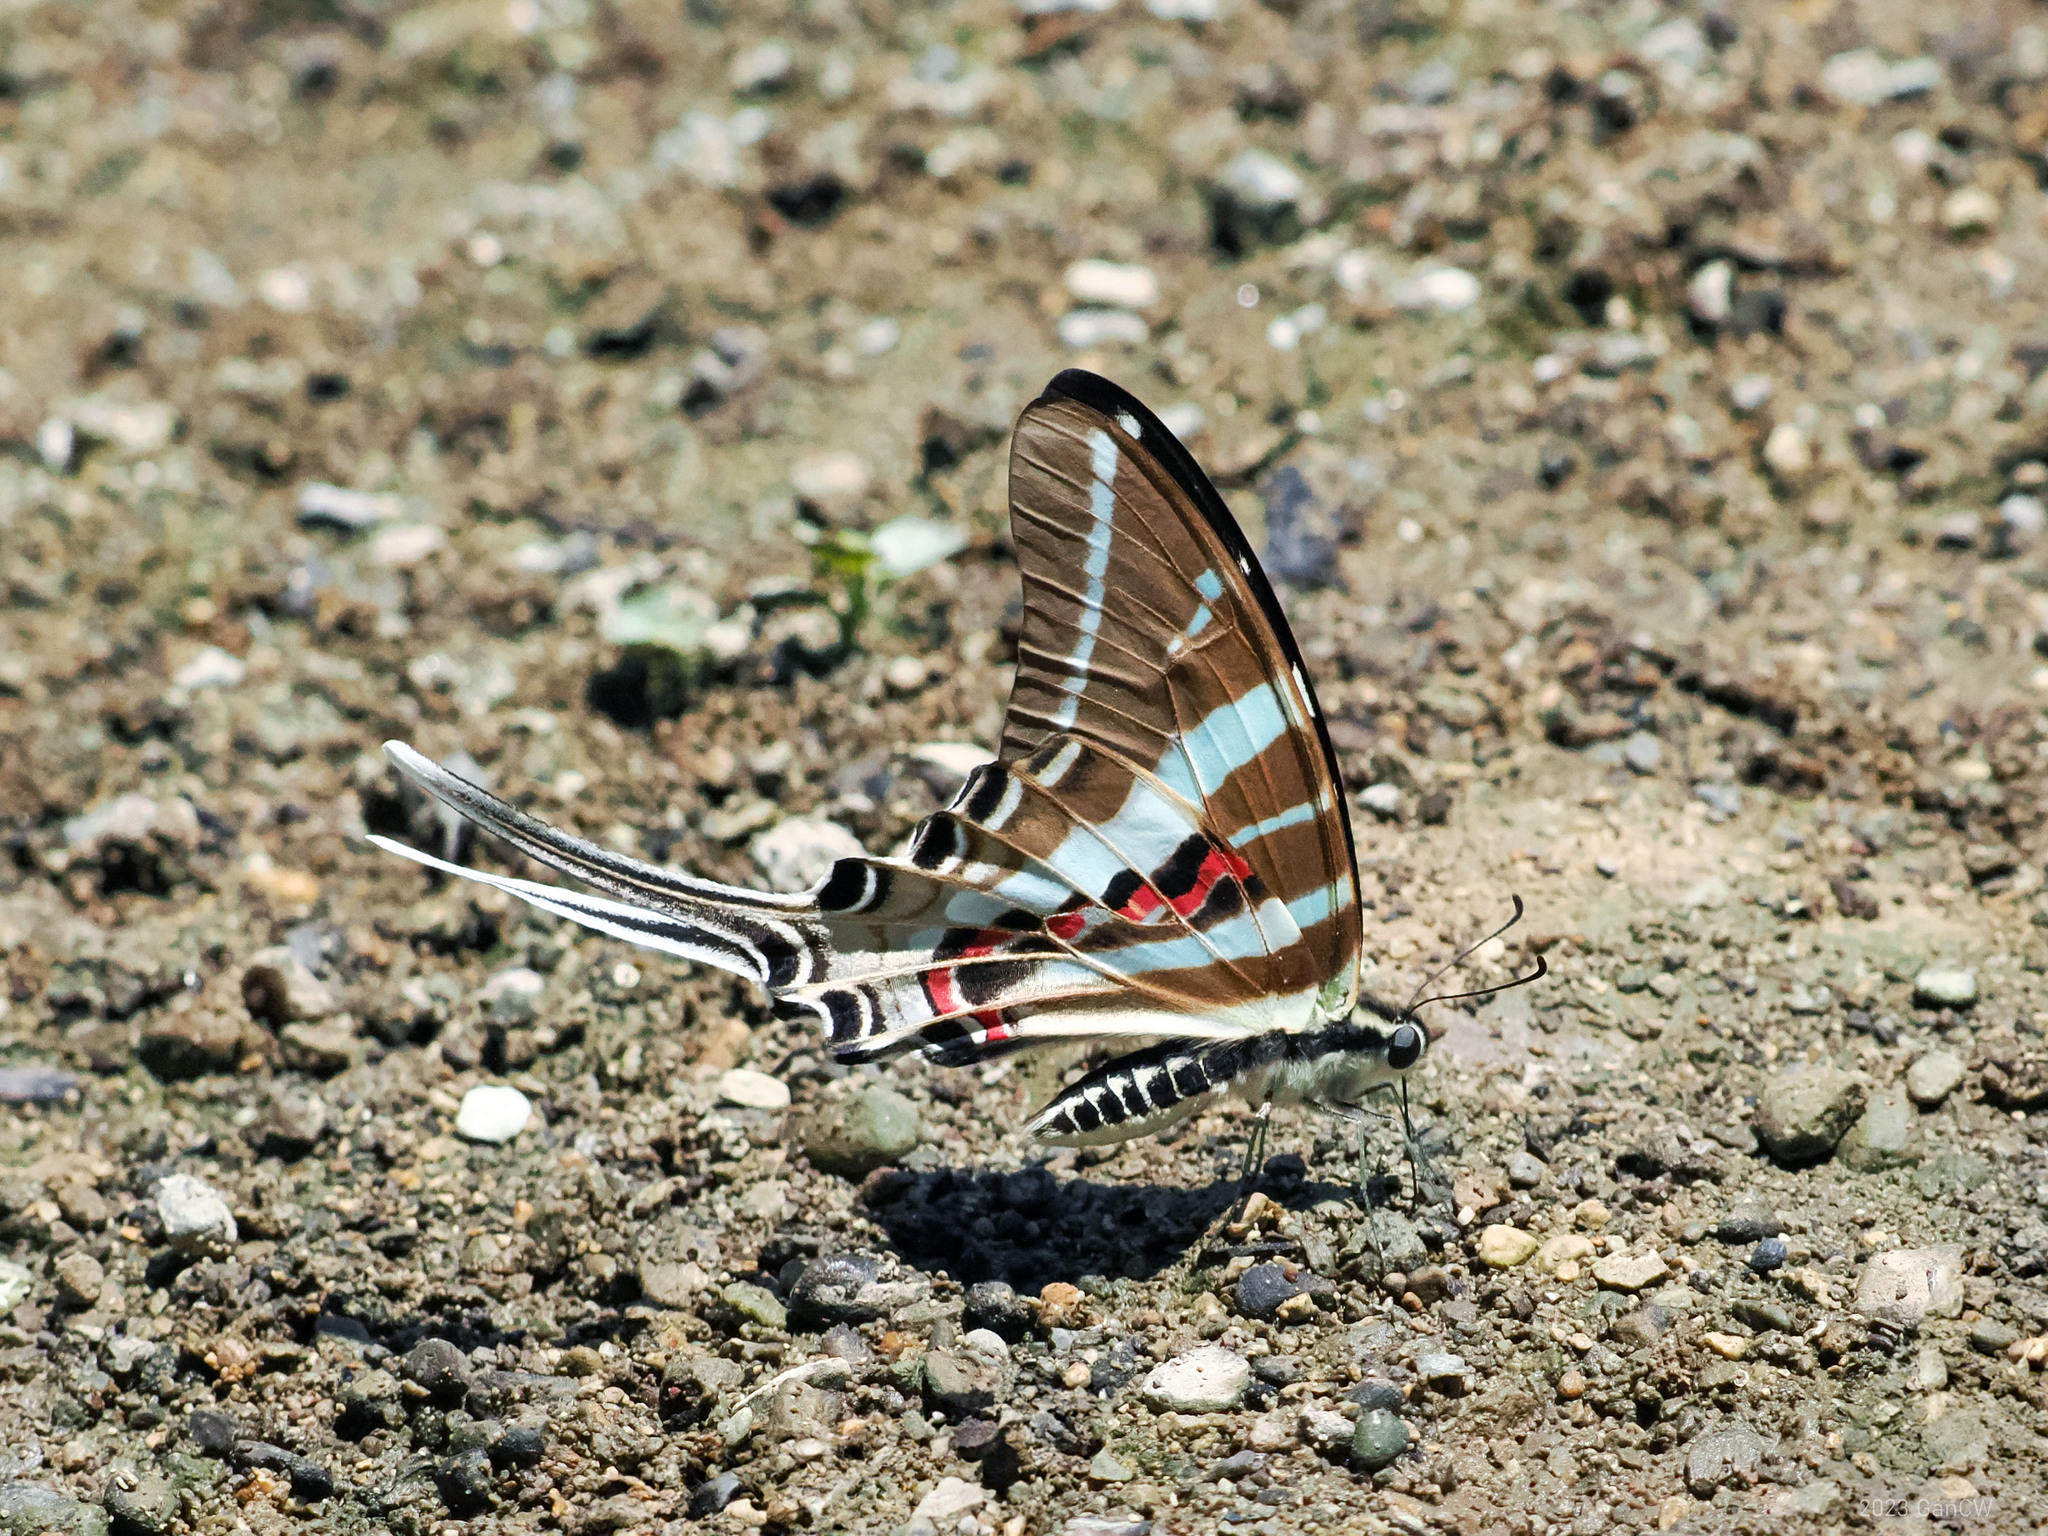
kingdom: Animalia
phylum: Arthropoda
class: Insecta
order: Lepidoptera
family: Papilionidae
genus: Graphium
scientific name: Graphium rhesus
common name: Monkey swordtail
